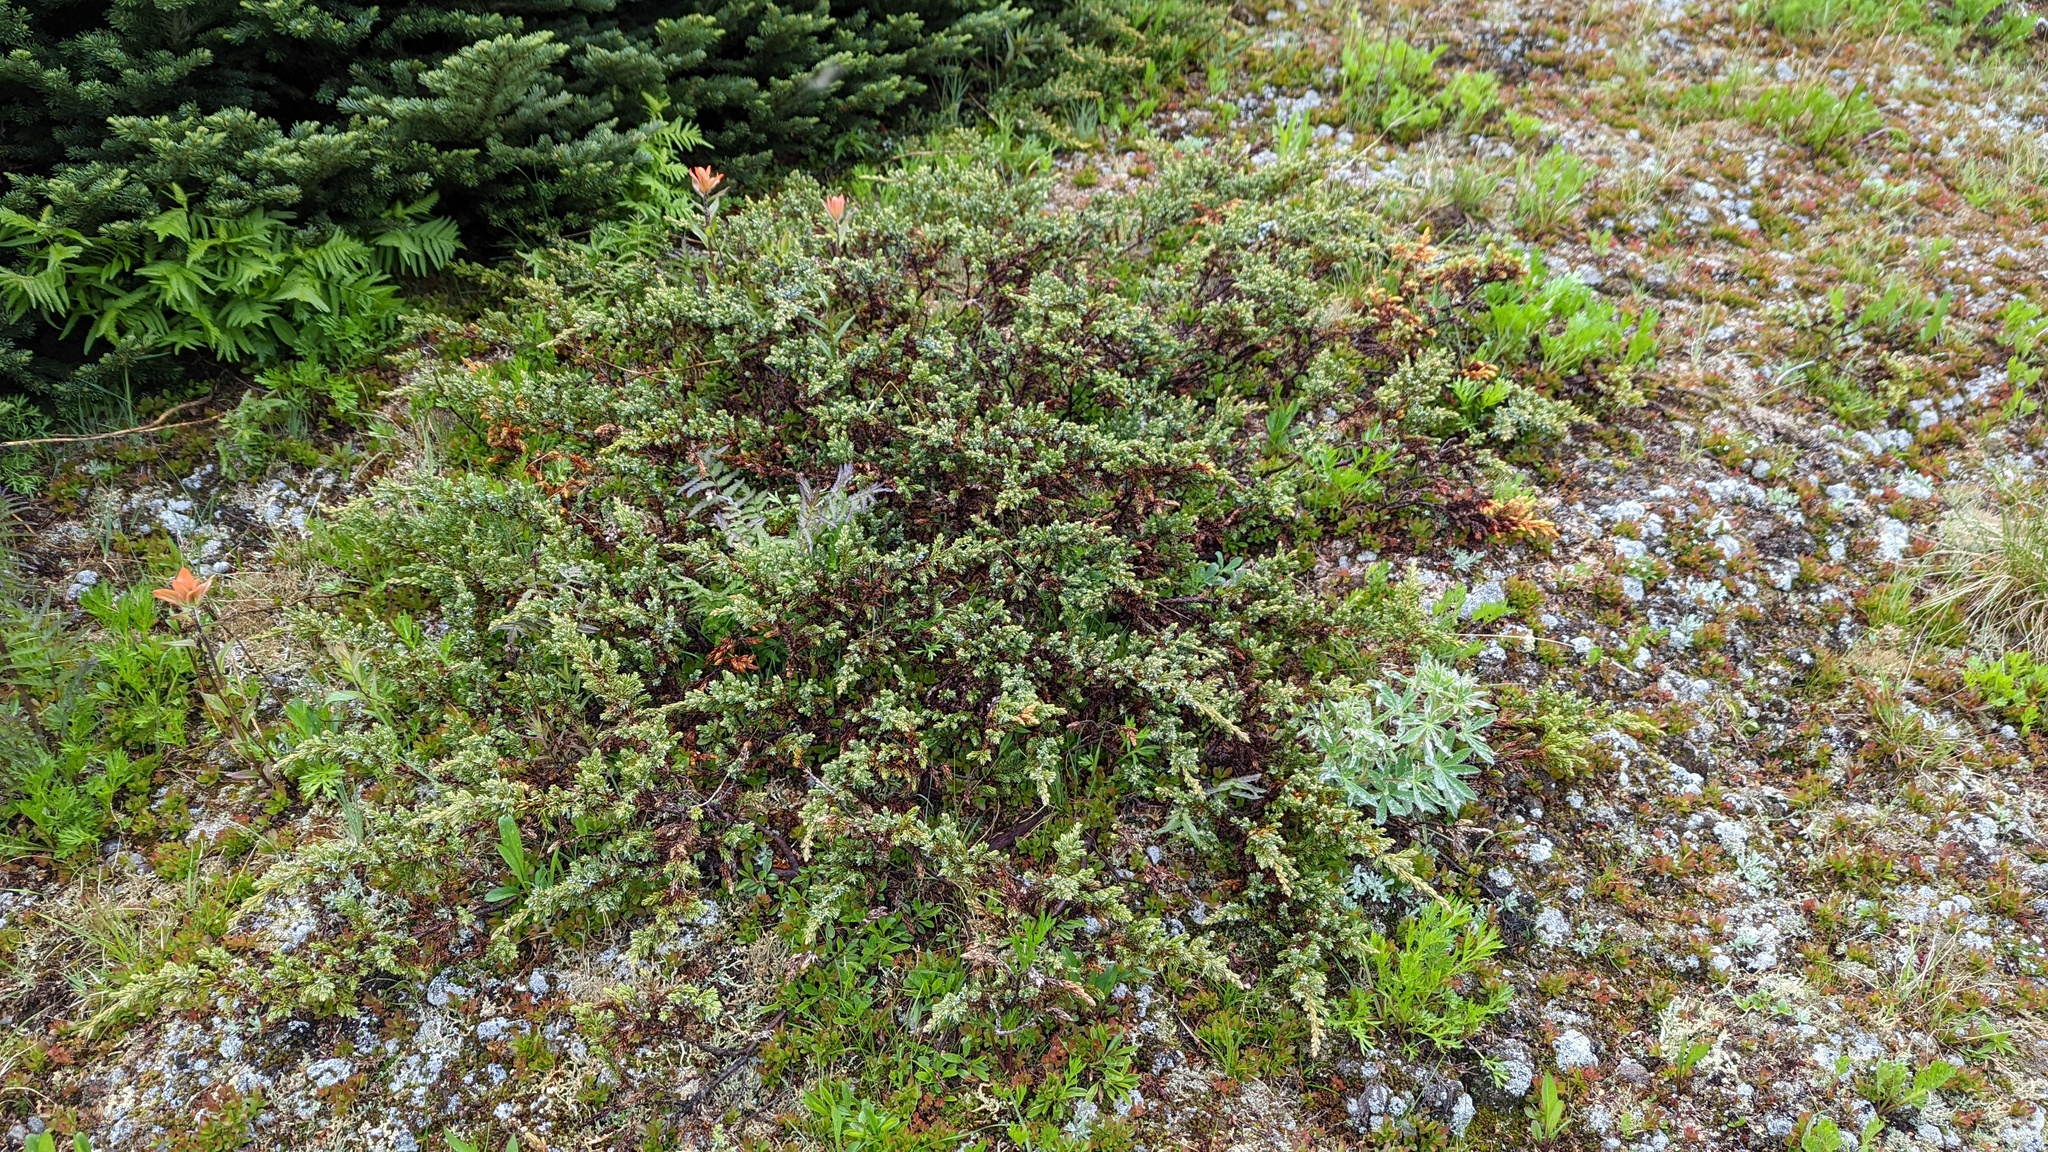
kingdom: Plantae
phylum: Tracheophyta
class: Pinopsida
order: Pinales
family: Cupressaceae
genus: Juniperus
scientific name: Juniperus communis
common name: Common juniper
